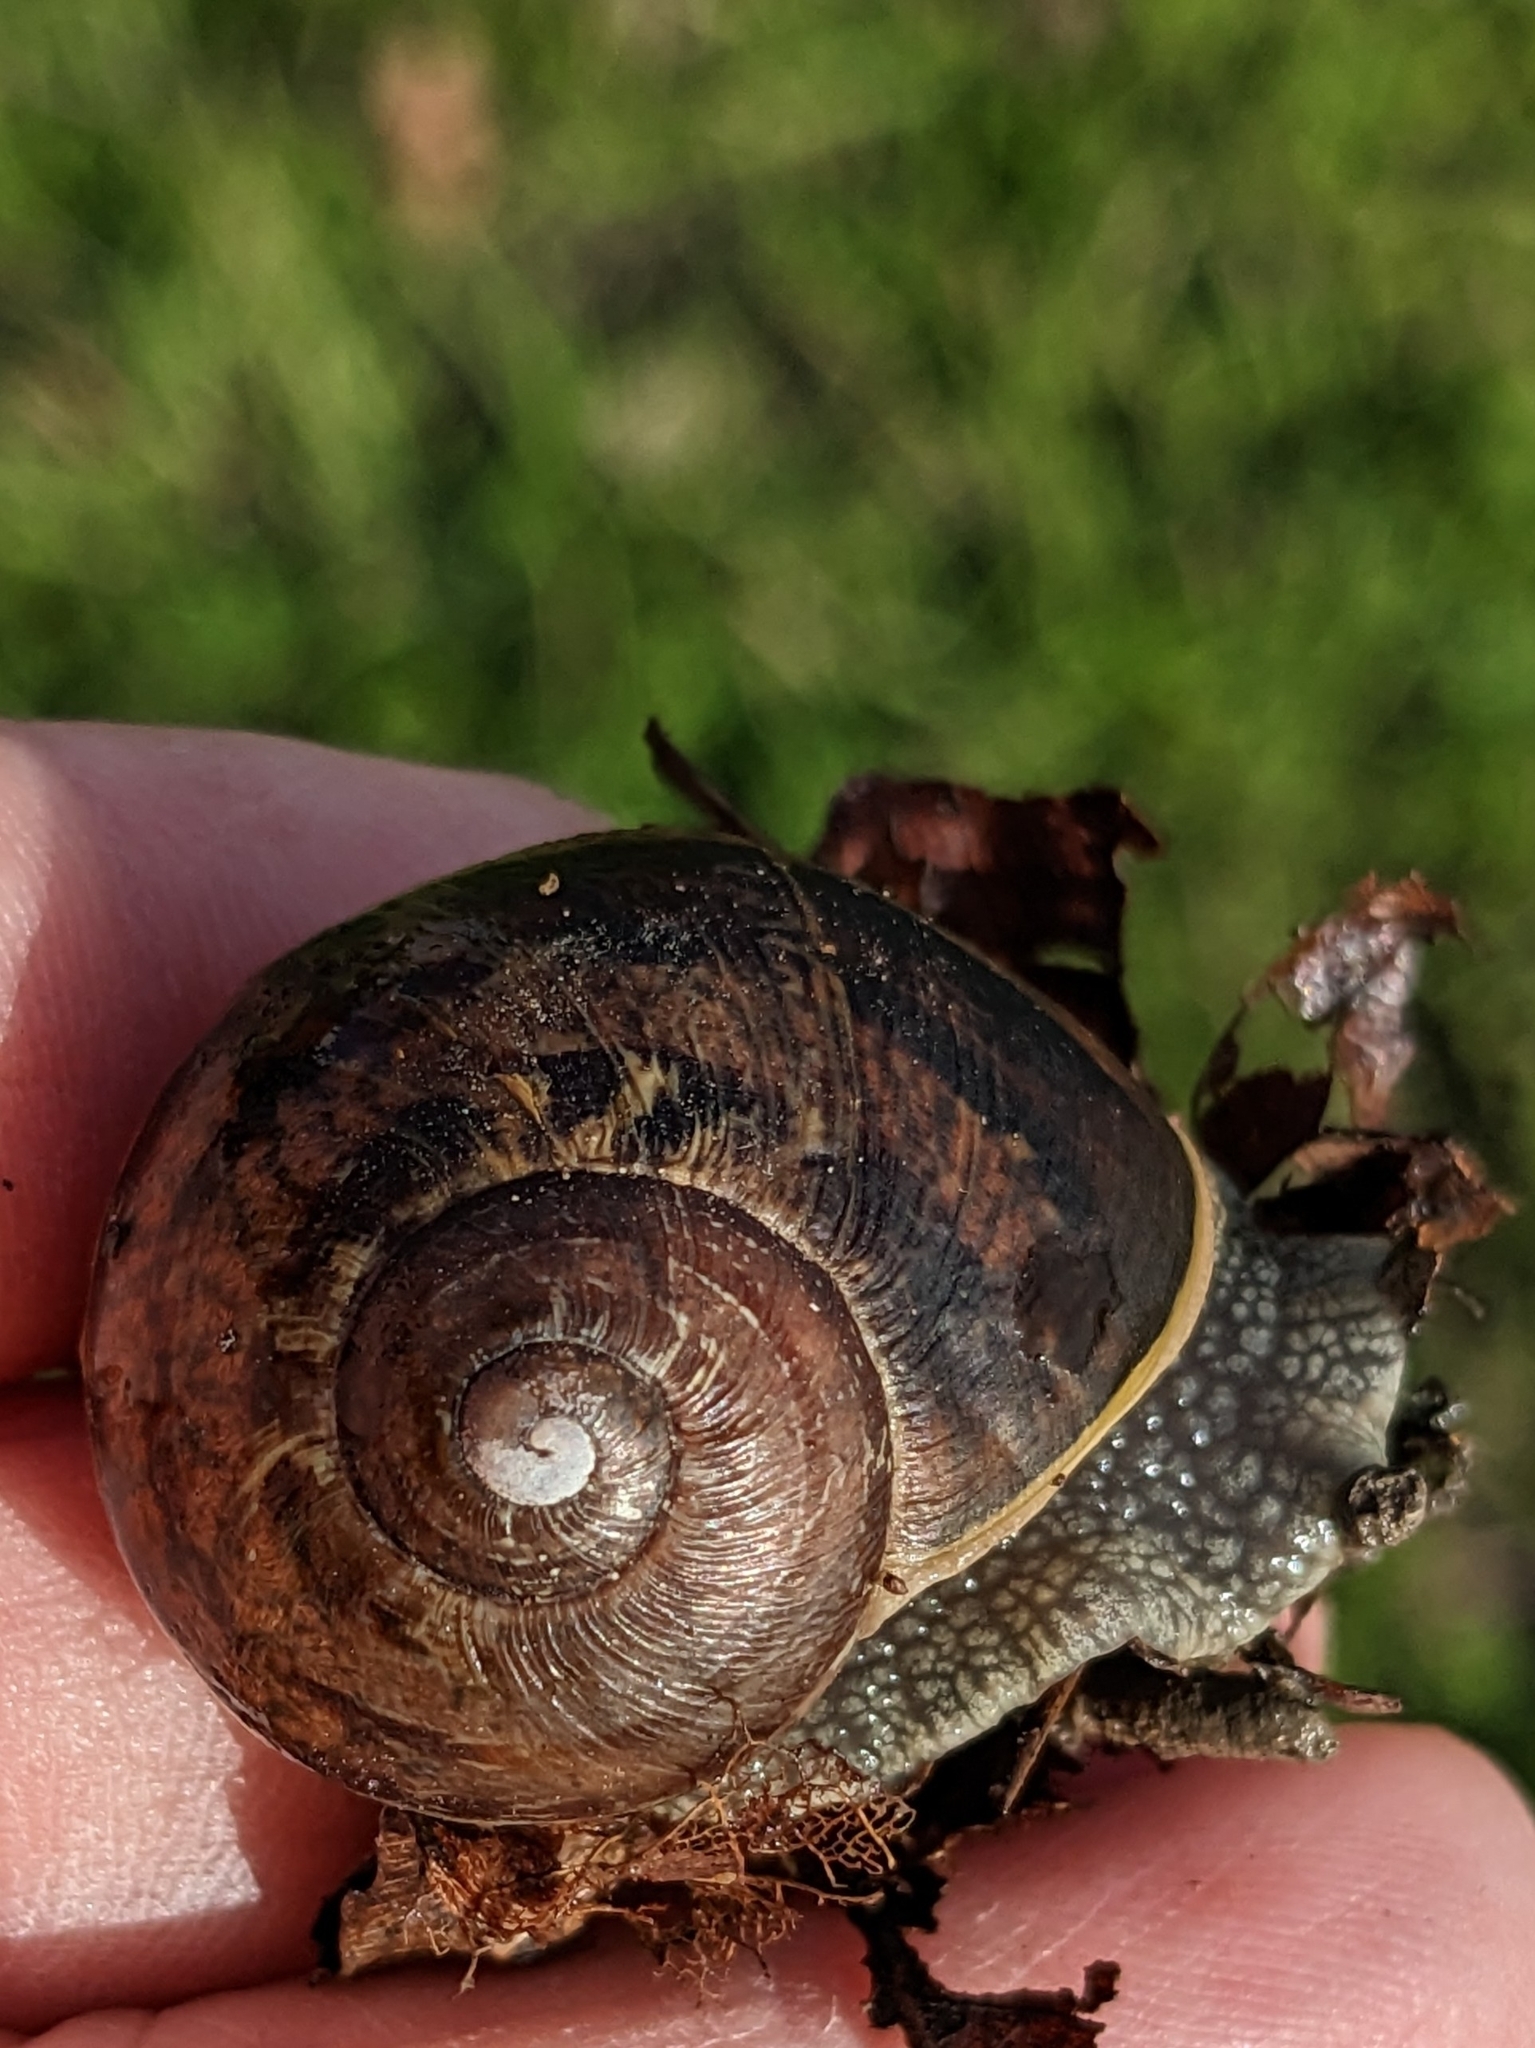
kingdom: Animalia
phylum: Mollusca
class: Gastropoda
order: Stylommatophora
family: Helicidae
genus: Cornu
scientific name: Cornu aspersum
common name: Brown garden snail
